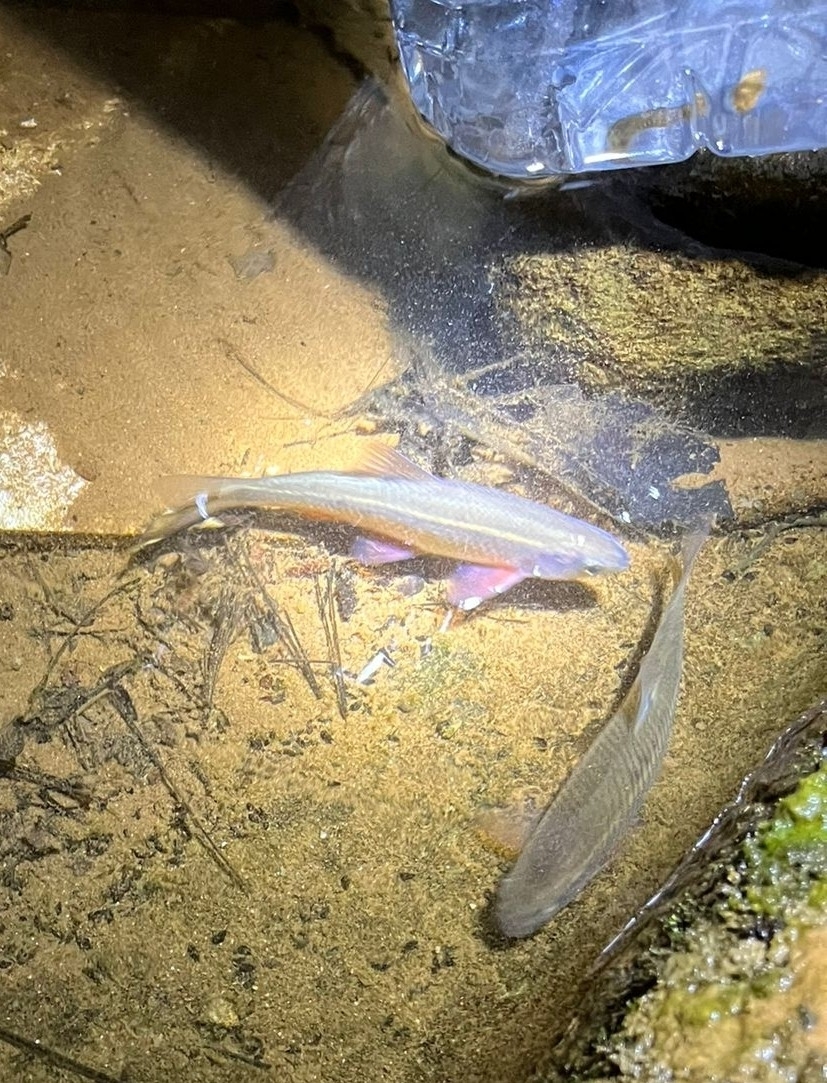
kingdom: Animalia
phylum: Chordata
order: Cypriniformes
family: Cyprinidae
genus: Sarmarutilus
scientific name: Sarmarutilus rubilio
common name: Rovella
